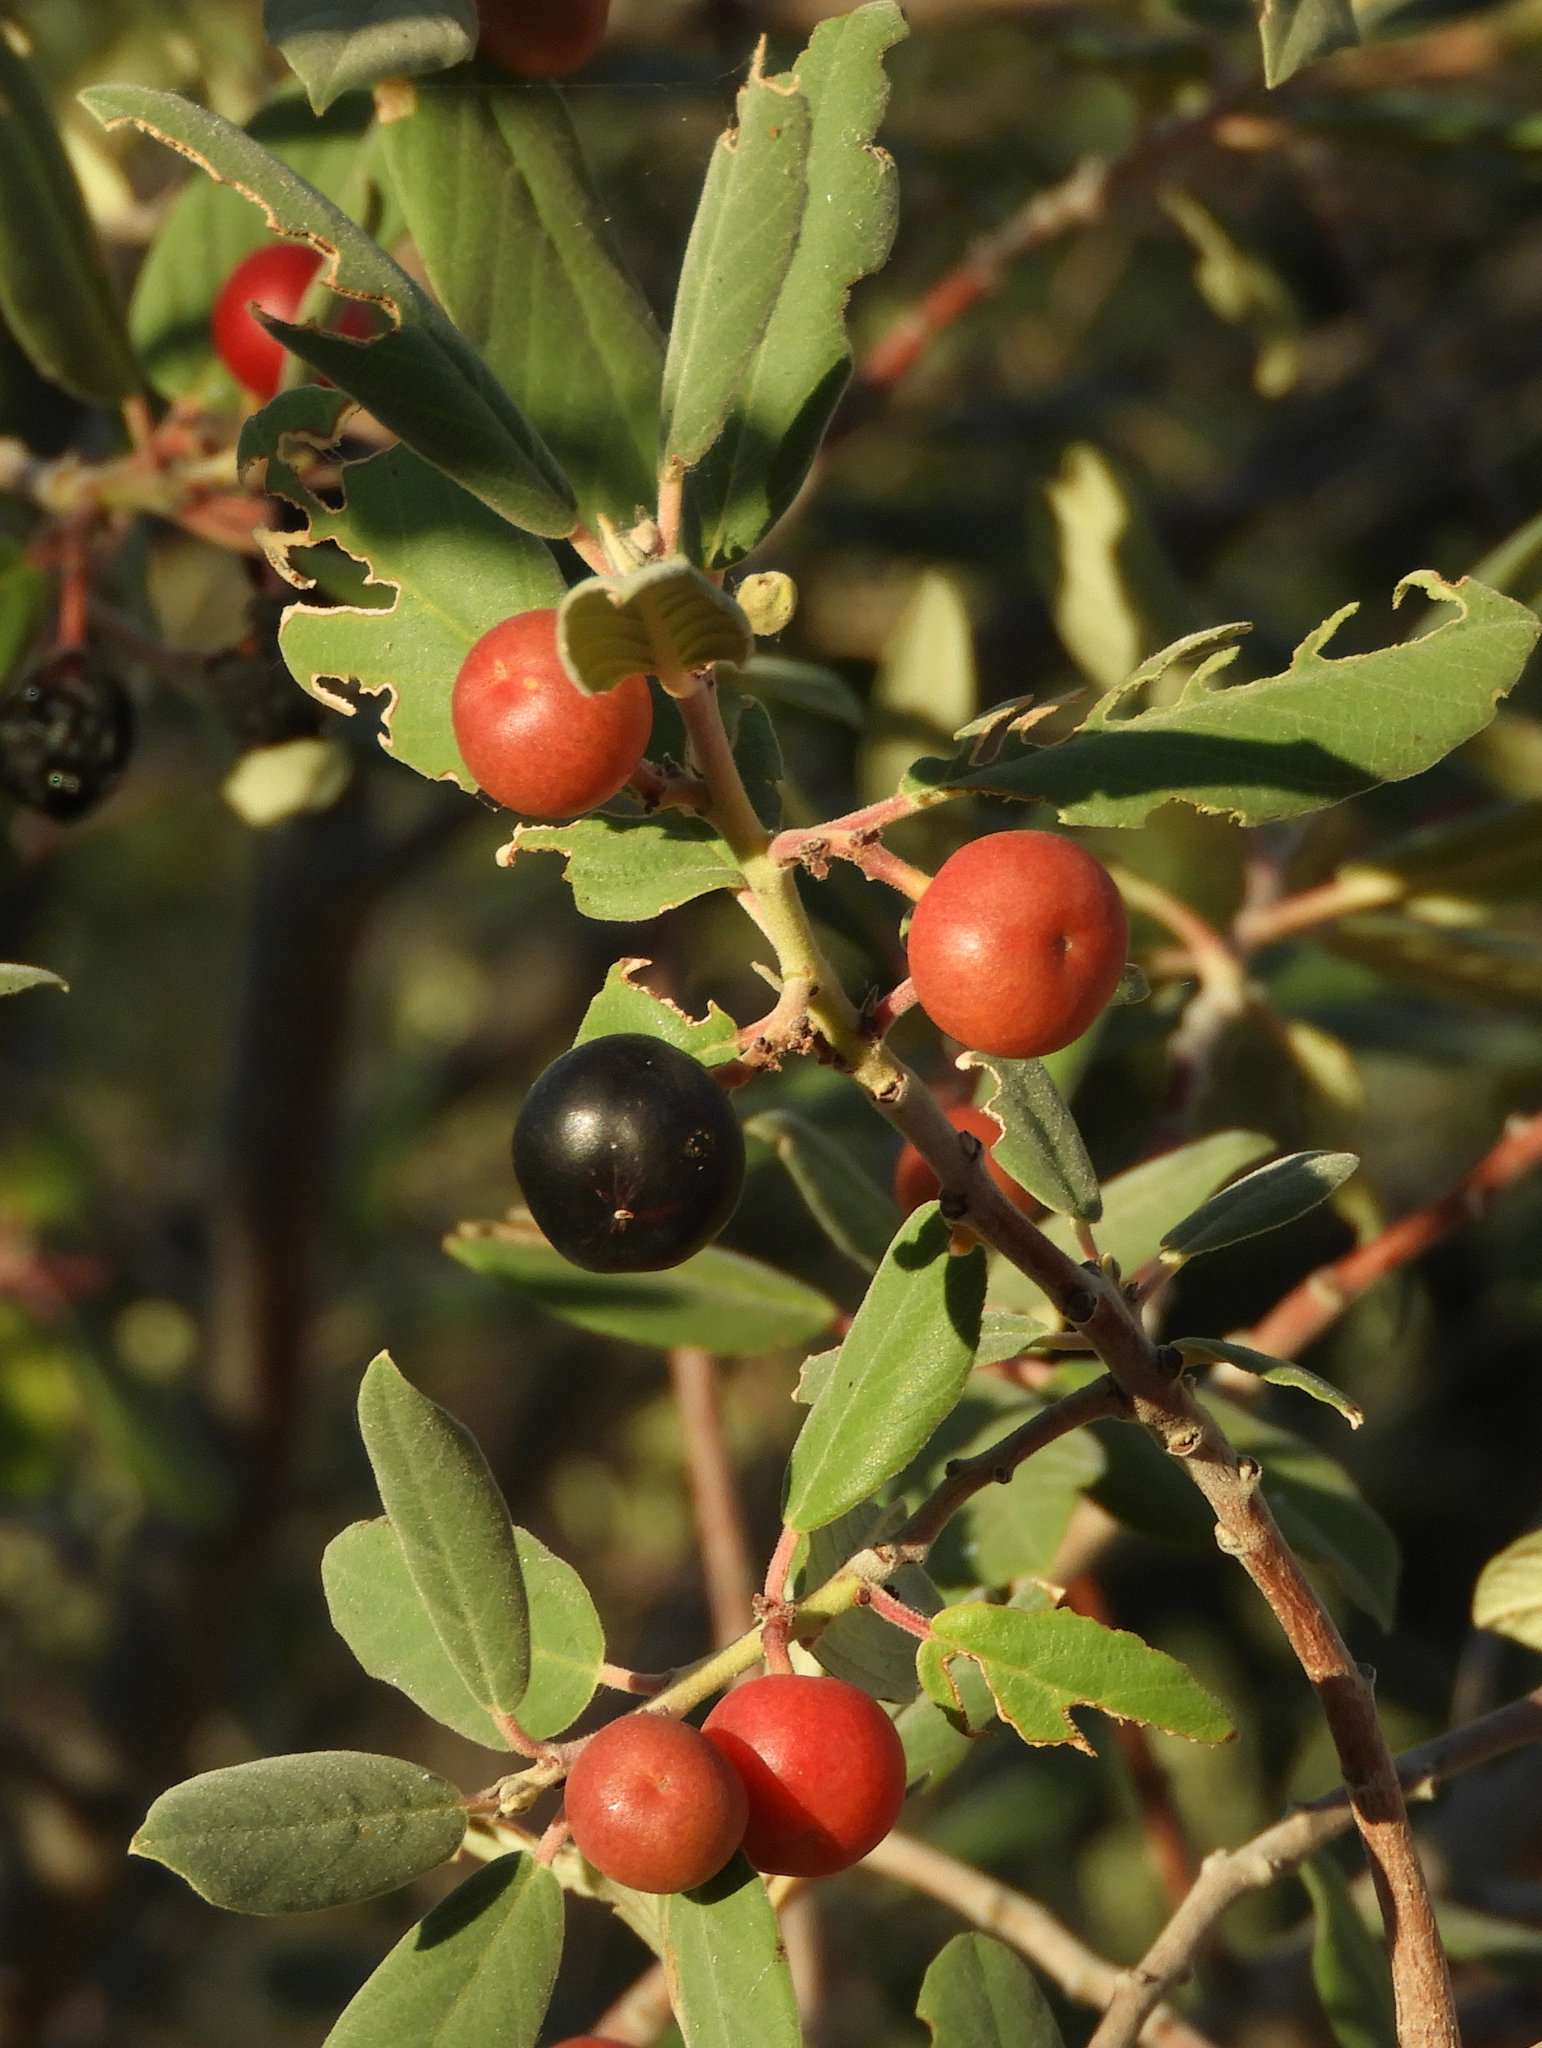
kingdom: Plantae
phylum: Tracheophyta
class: Magnoliopsida
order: Rosales
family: Rhamnaceae
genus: Frangula
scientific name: Frangula californica
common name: California buckthorn
